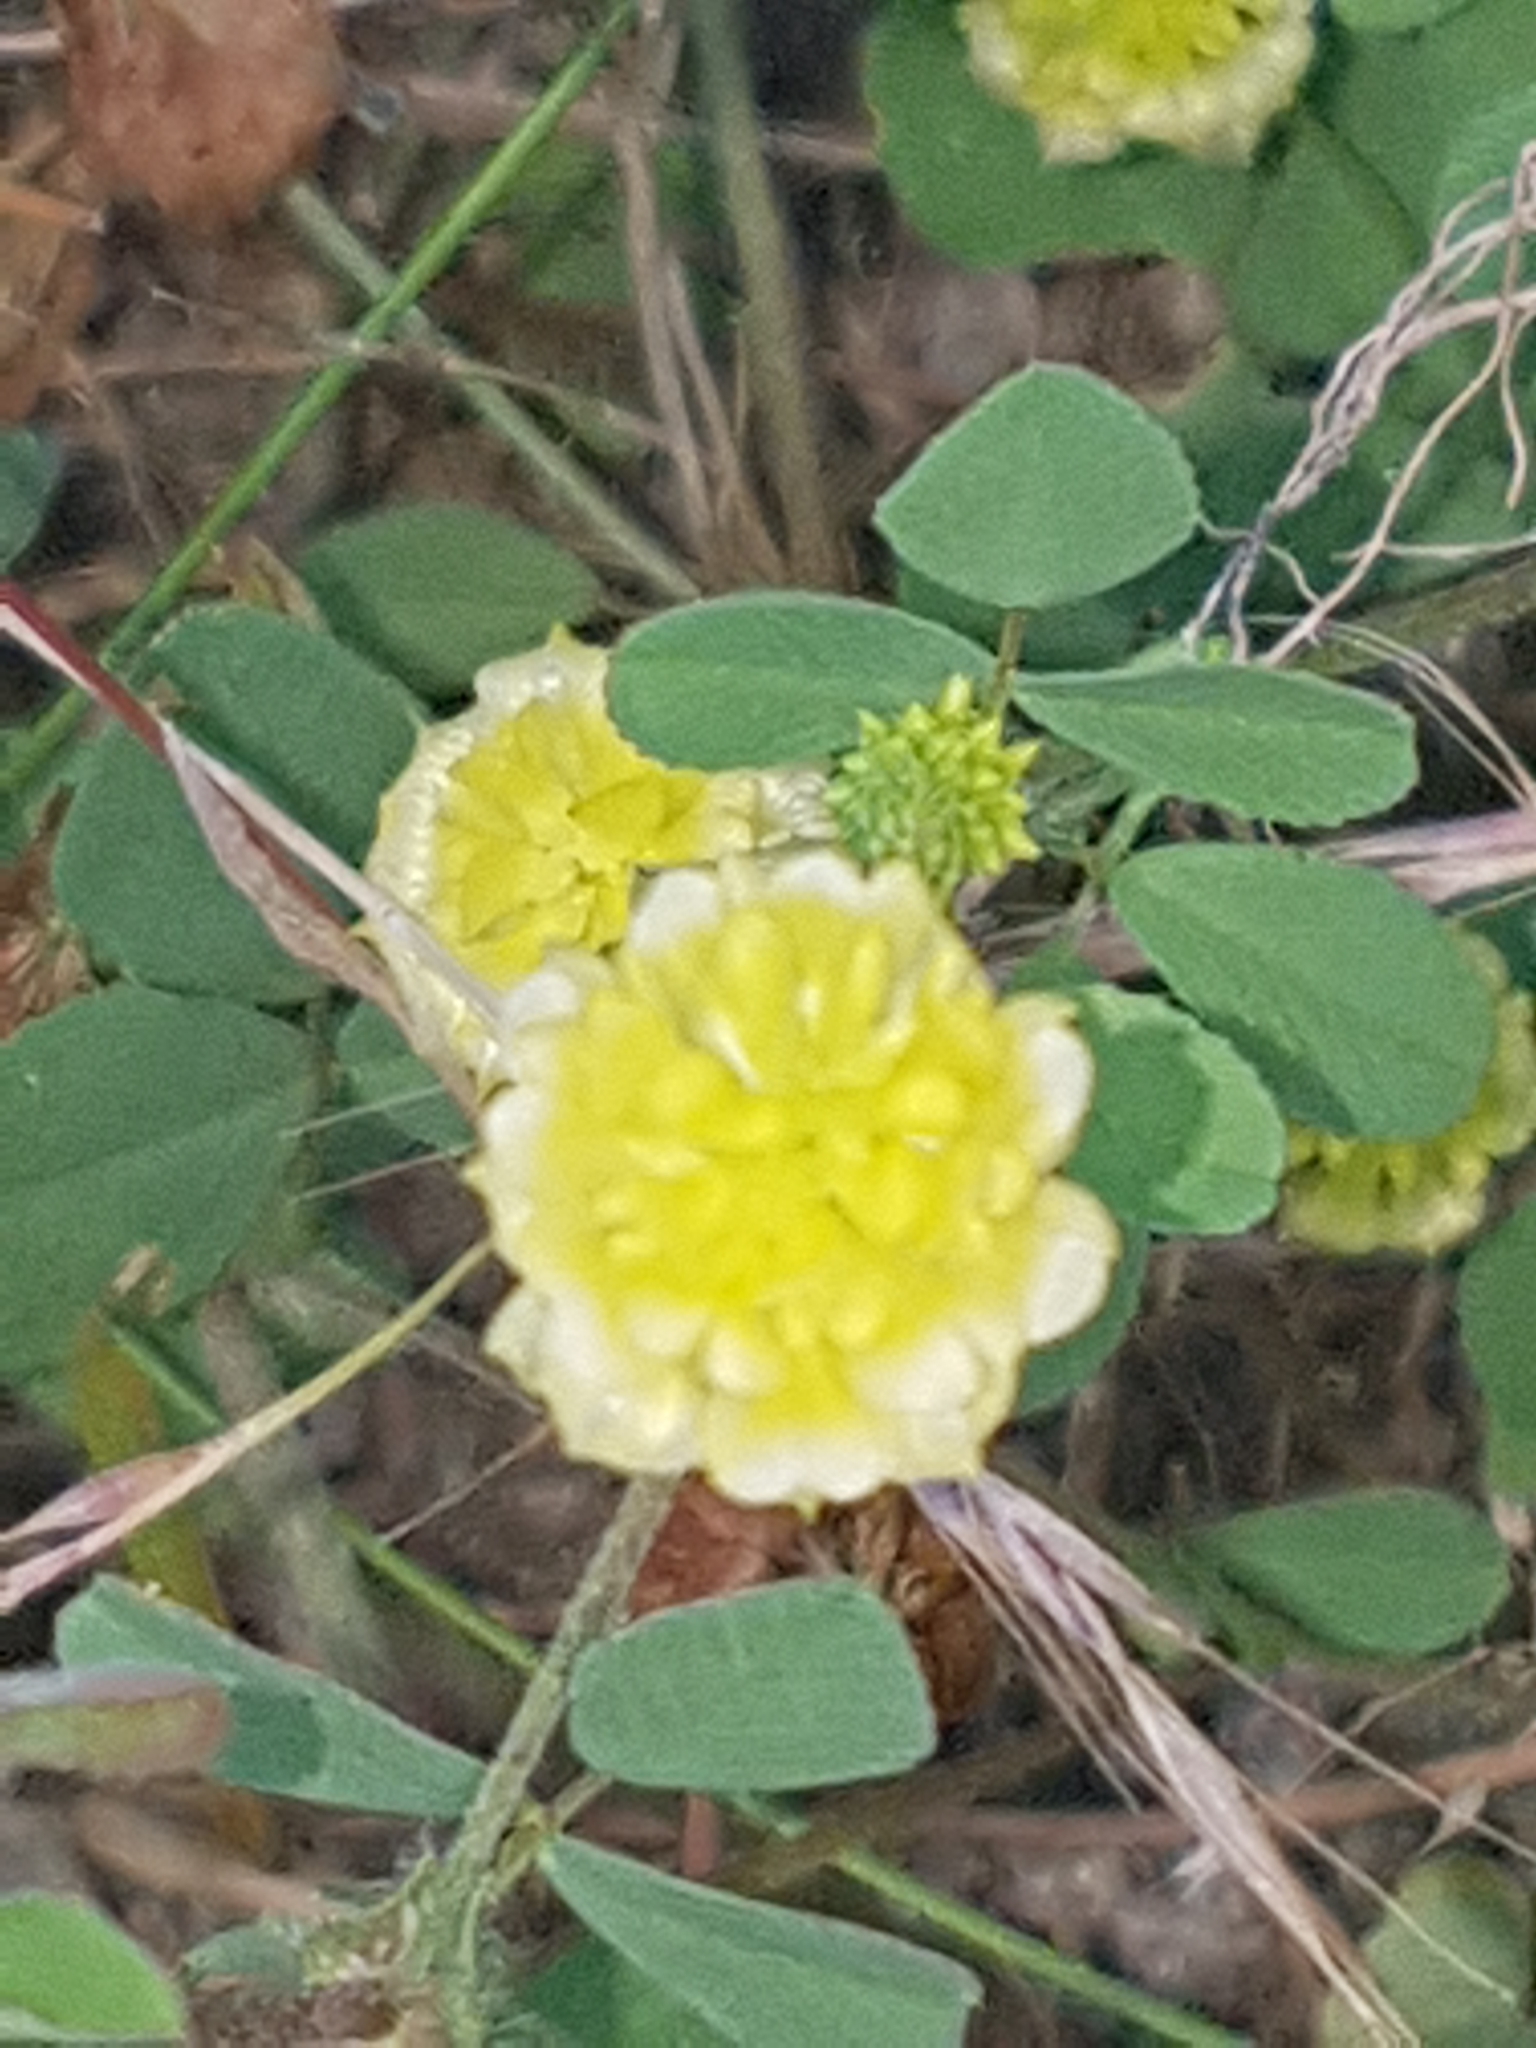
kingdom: Plantae
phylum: Tracheophyta
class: Magnoliopsida
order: Fabales
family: Fabaceae
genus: Trifolium
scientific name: Trifolium campestre
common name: Field clover
